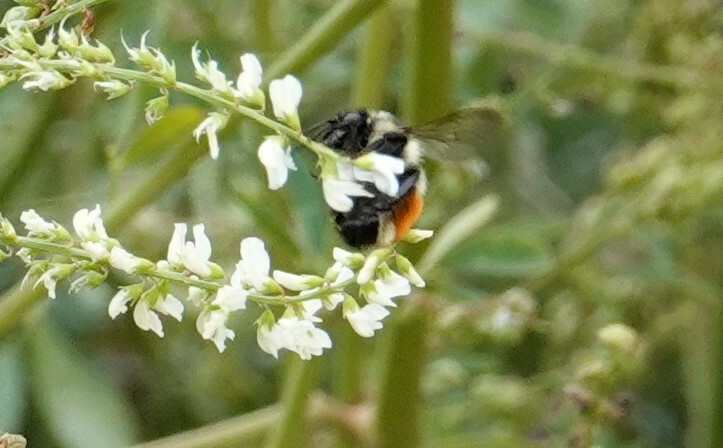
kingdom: Animalia
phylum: Arthropoda
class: Insecta
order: Hymenoptera
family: Apidae
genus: Bombus
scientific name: Bombus ternarius
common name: Tri-colored bumble bee
